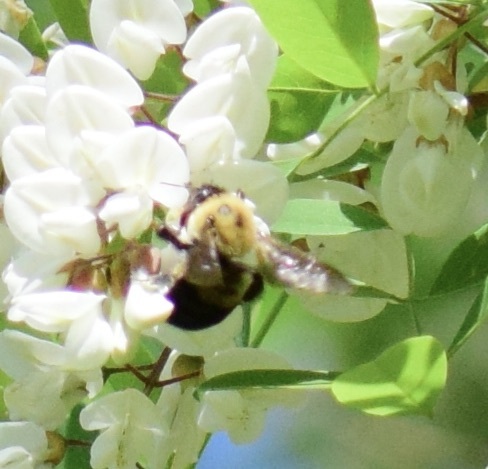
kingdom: Animalia
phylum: Arthropoda
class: Insecta
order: Hymenoptera
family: Apidae
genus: Bombus
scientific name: Bombus griseocollis
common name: Brown-belted bumble bee
